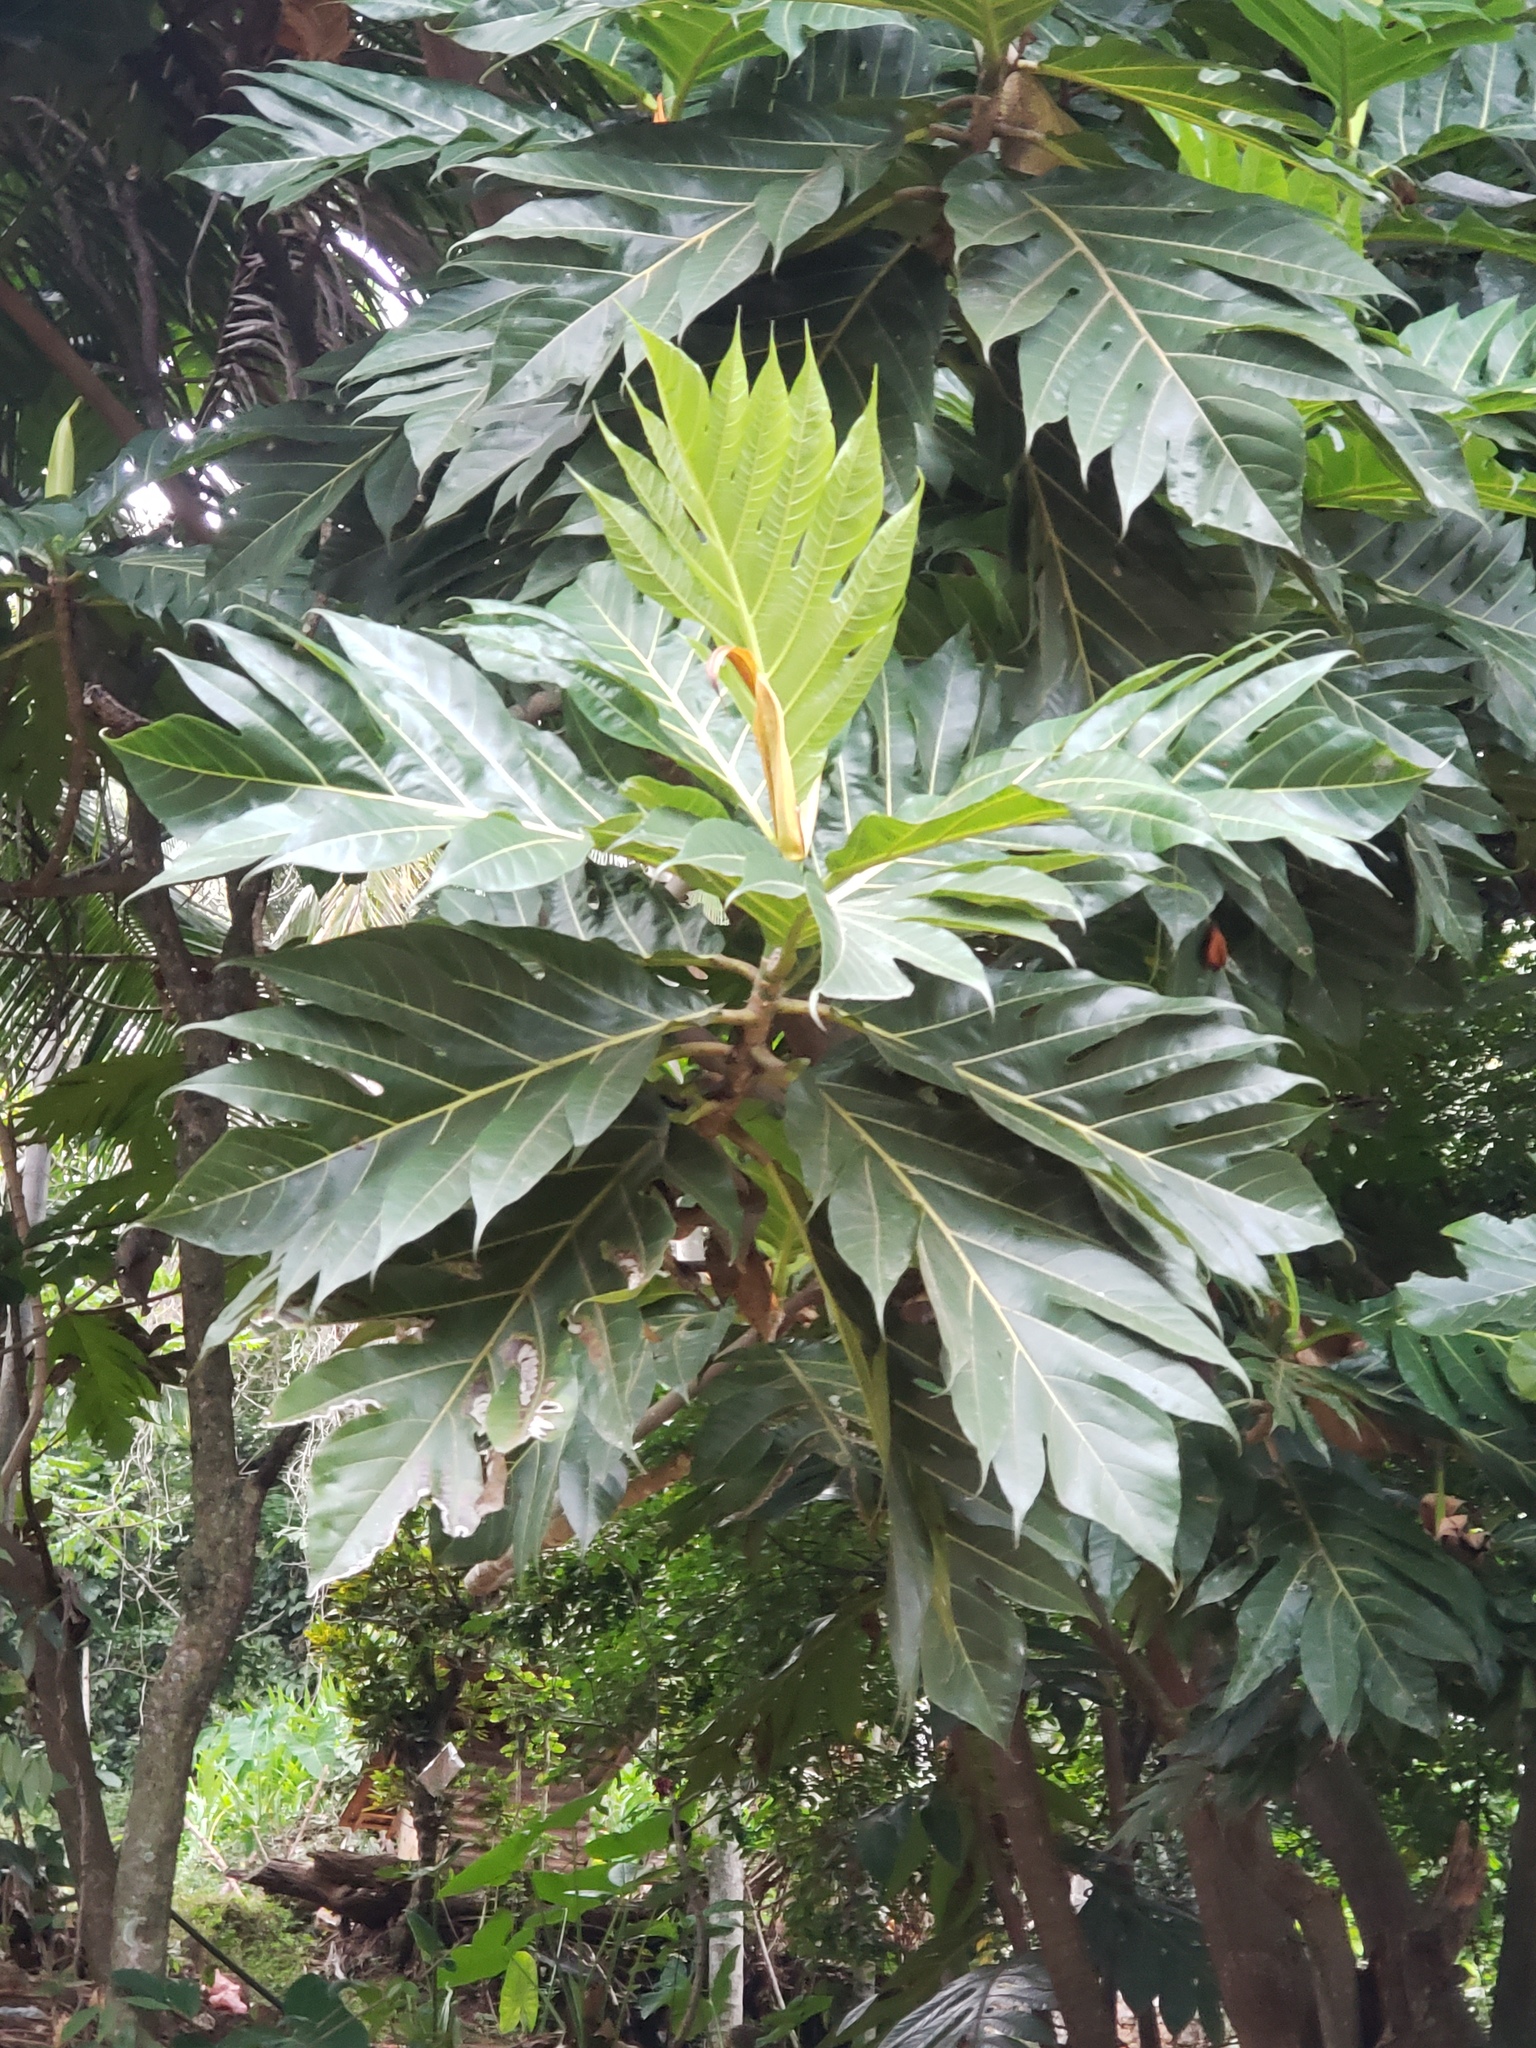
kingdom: Plantae
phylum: Tracheophyta
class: Magnoliopsida
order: Rosales
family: Moraceae
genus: Artocarpus
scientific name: Artocarpus altilis
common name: Breadfruit
